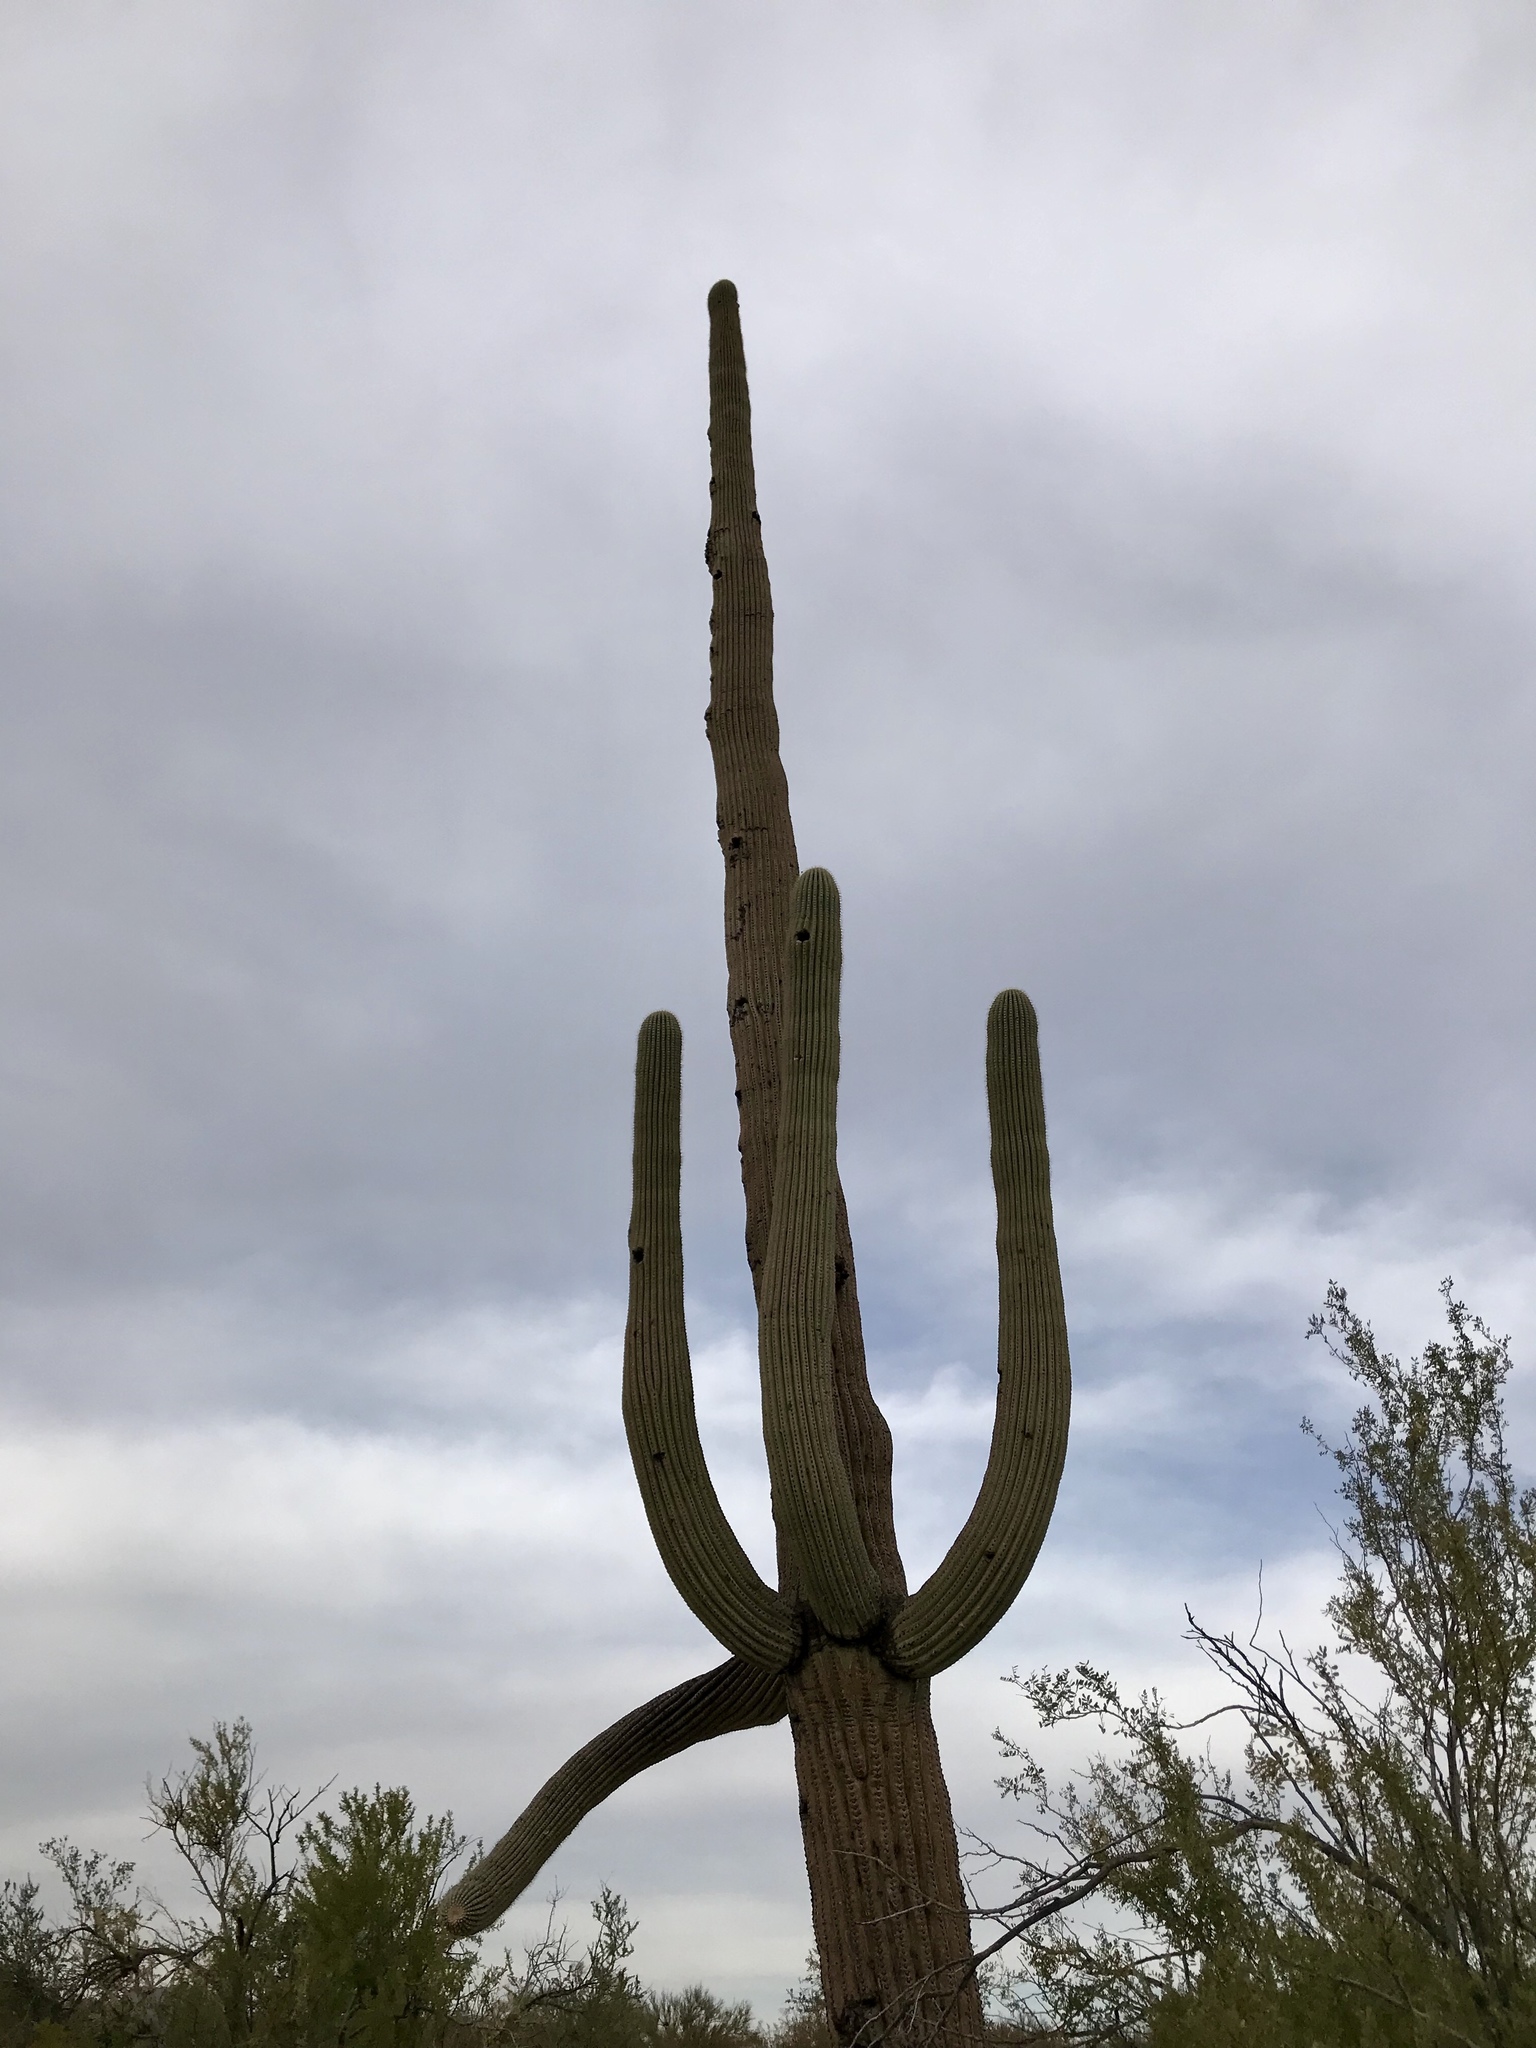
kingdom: Plantae
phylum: Tracheophyta
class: Magnoliopsida
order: Caryophyllales
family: Cactaceae
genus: Carnegiea
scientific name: Carnegiea gigantea
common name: Saguaro
